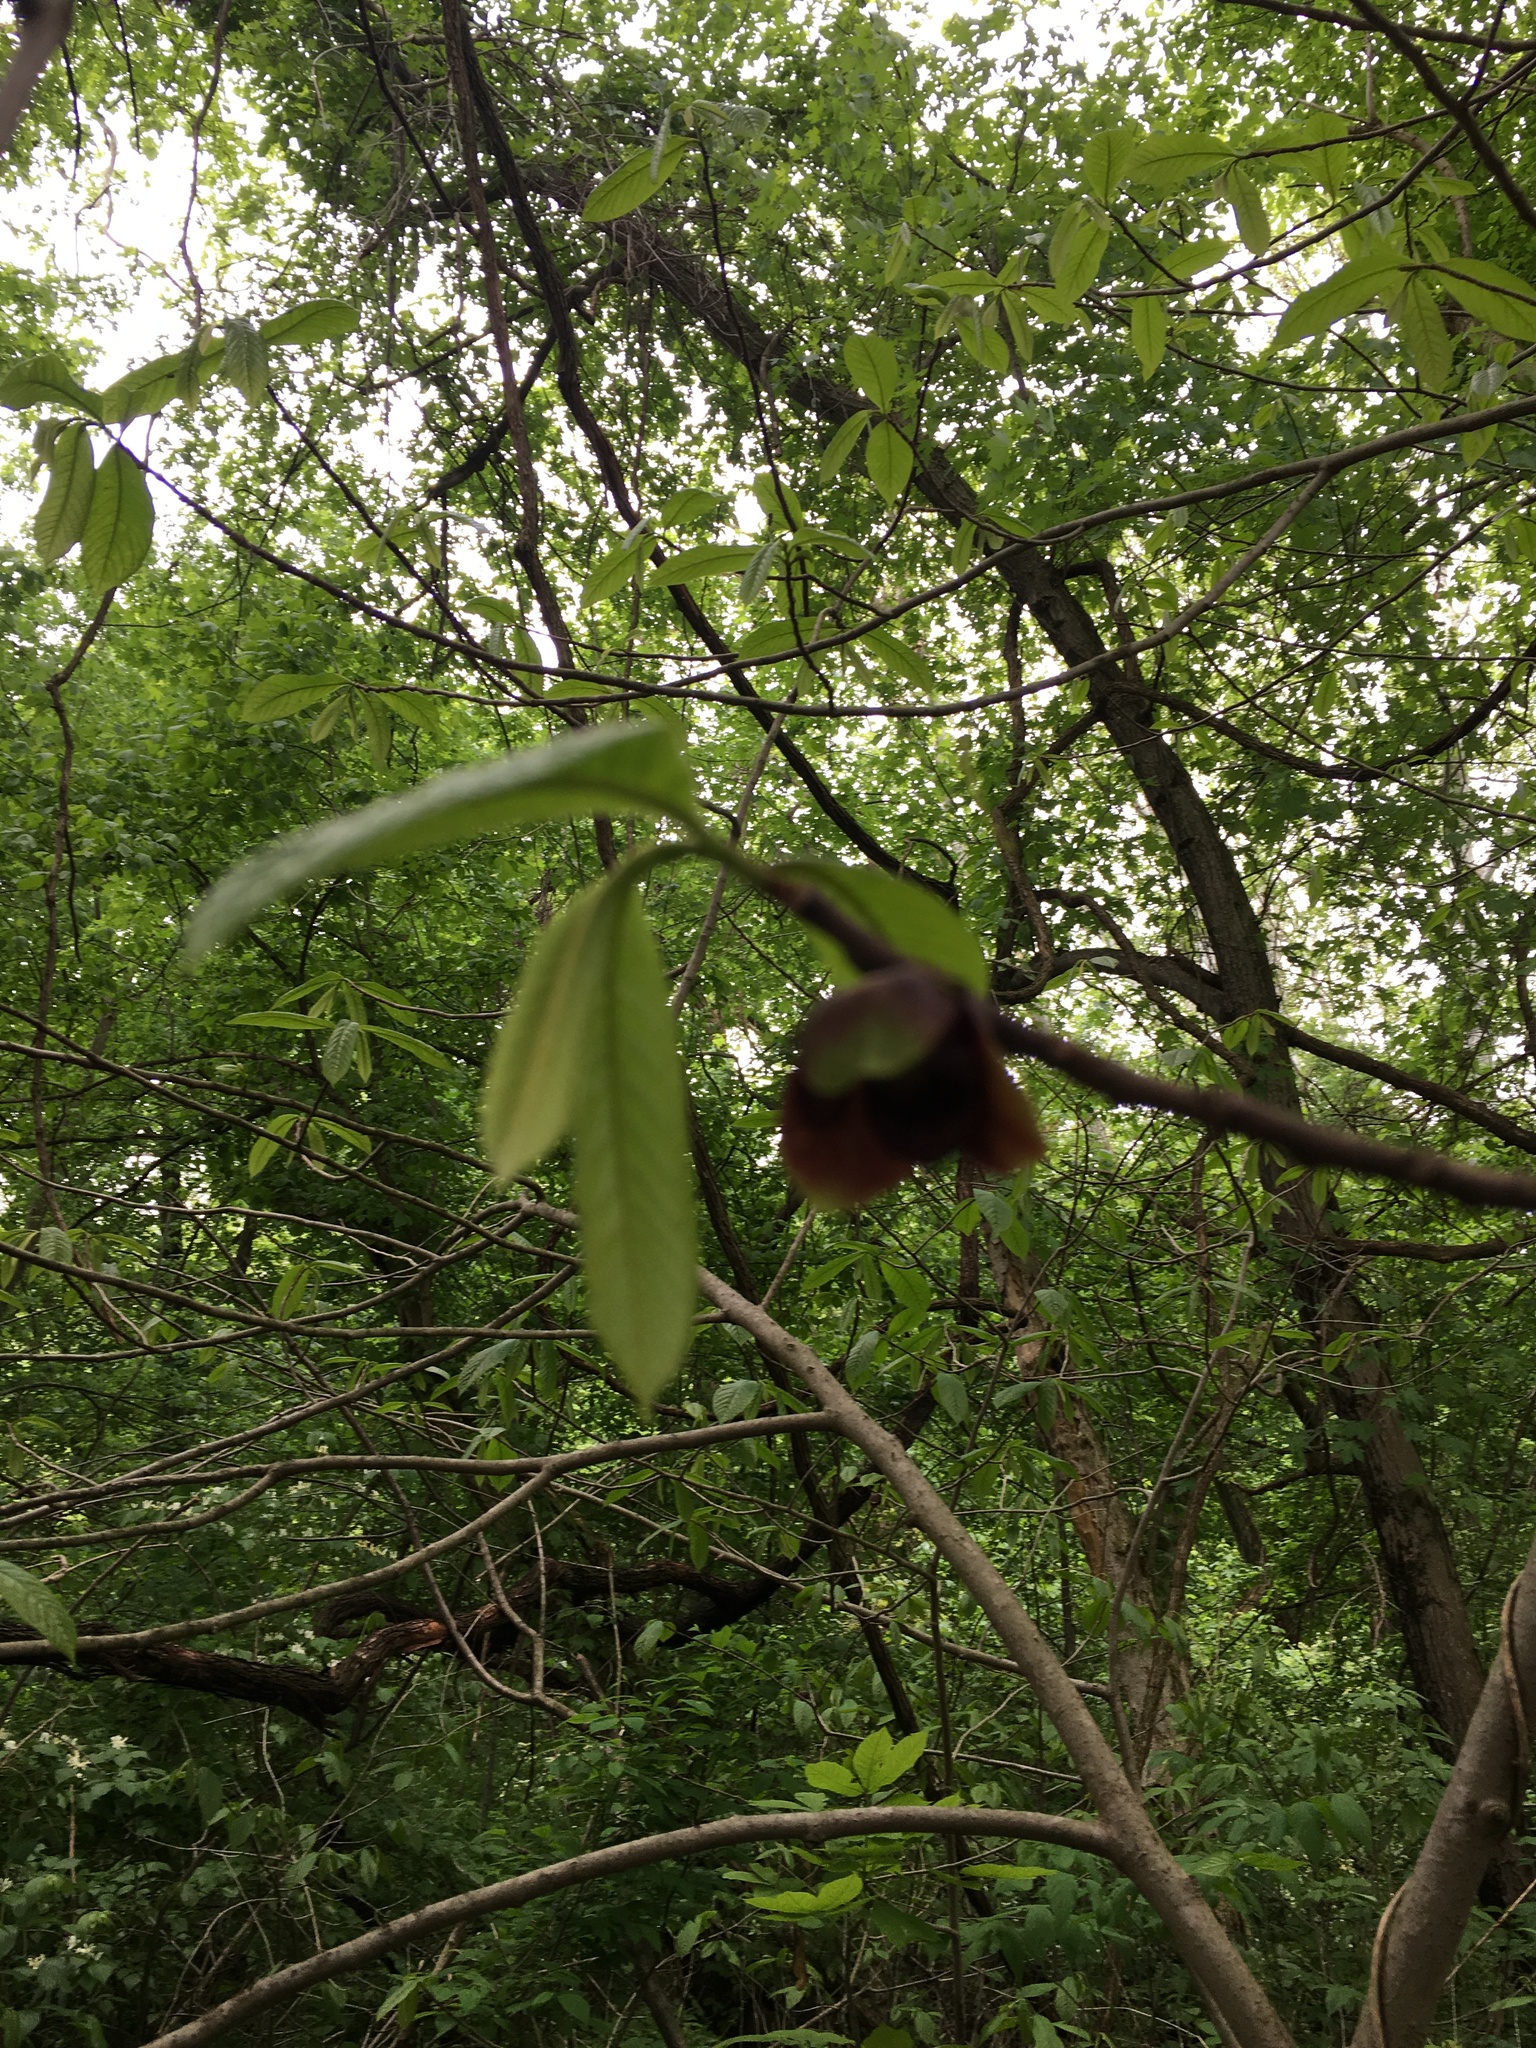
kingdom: Plantae
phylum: Tracheophyta
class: Magnoliopsida
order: Magnoliales
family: Annonaceae
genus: Asimina
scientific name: Asimina triloba
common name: Dog-banana
